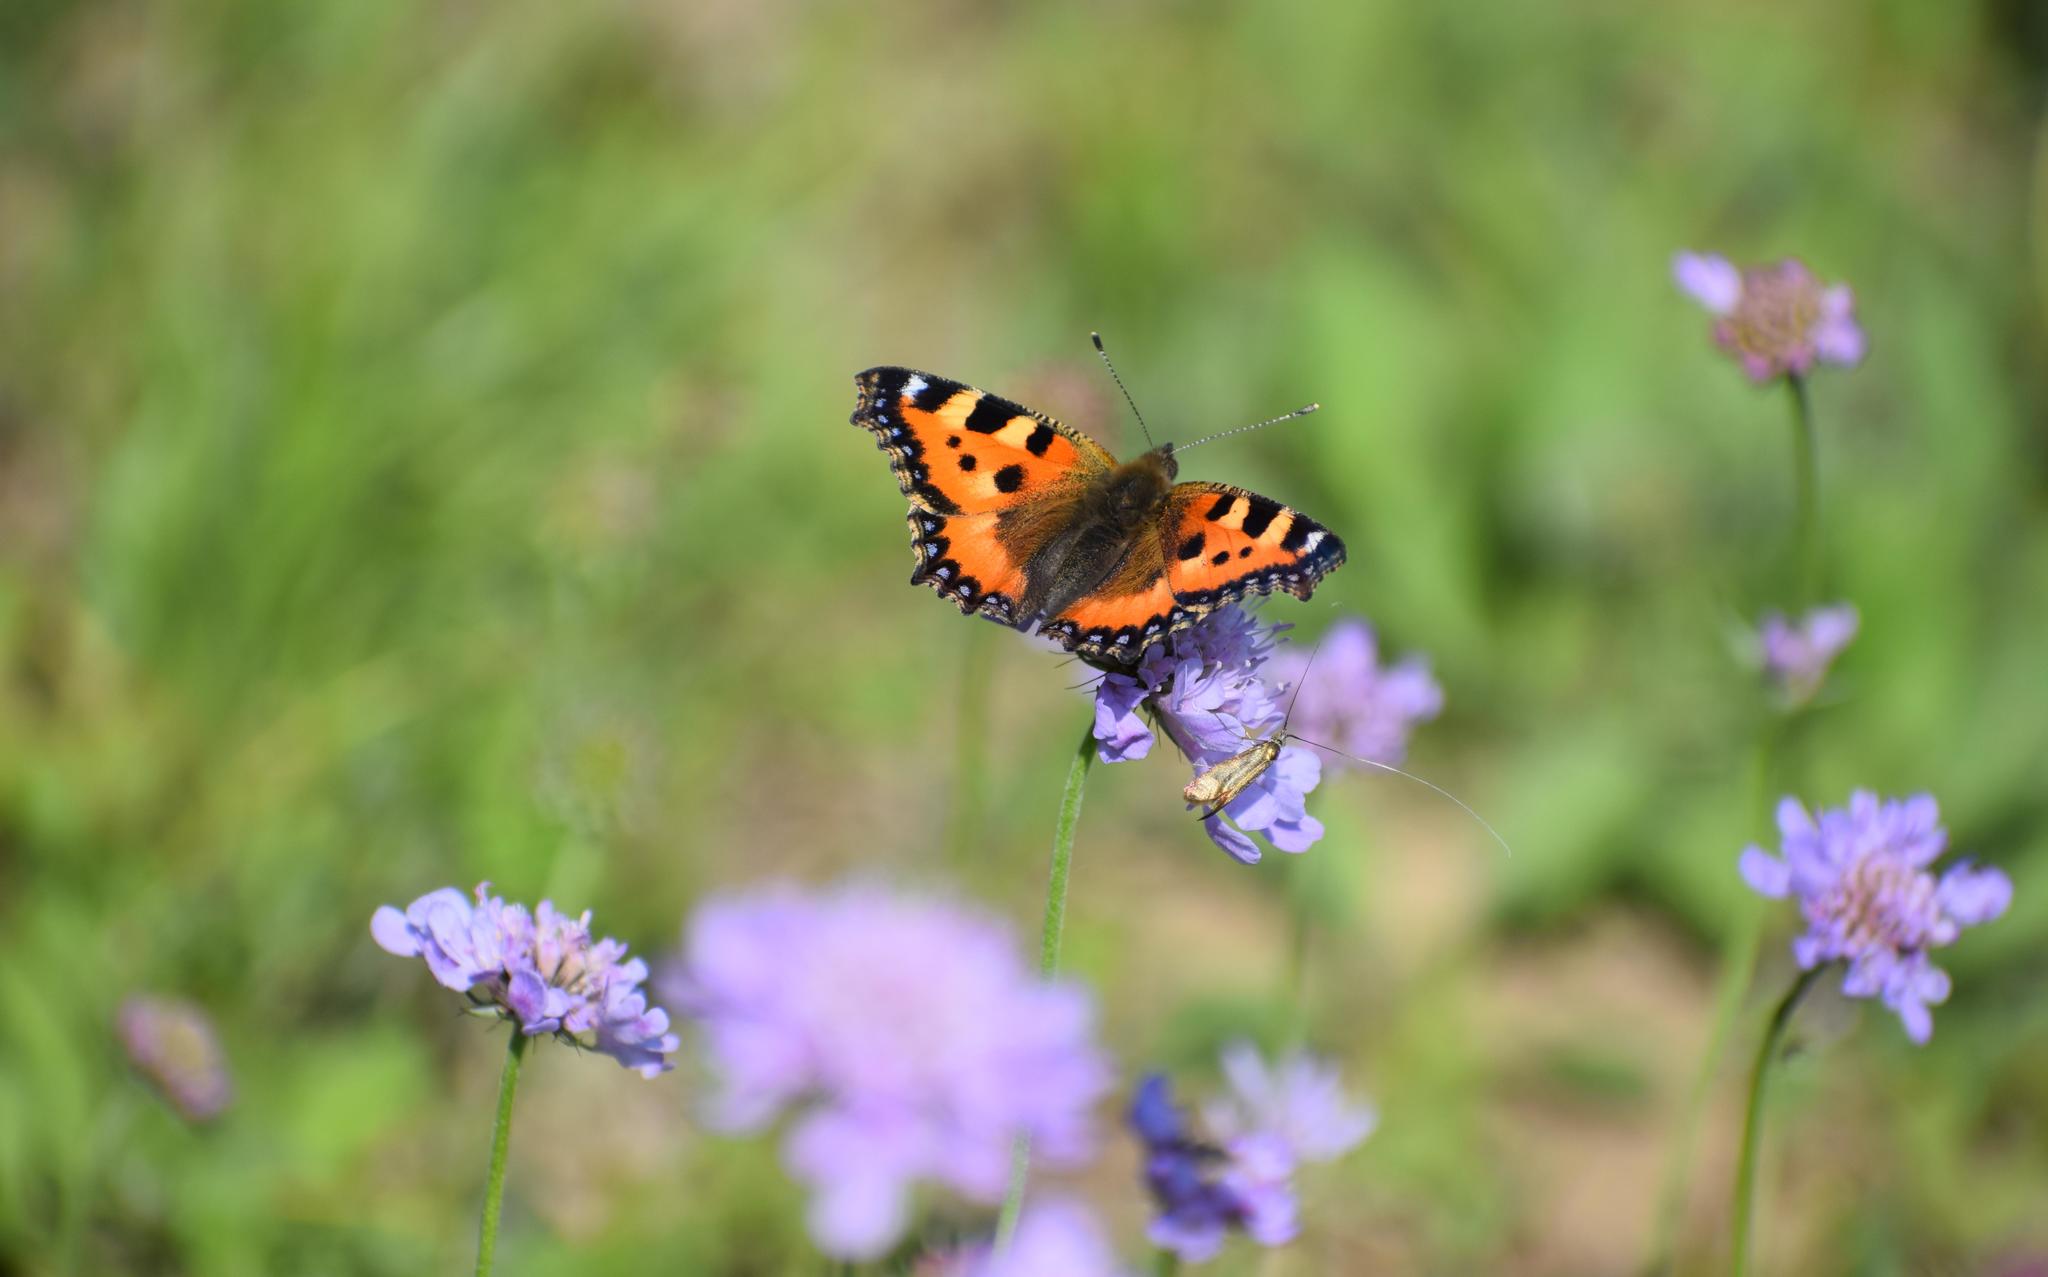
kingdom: Animalia
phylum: Arthropoda
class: Insecta
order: Lepidoptera
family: Nymphalidae
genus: Aglais
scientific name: Aglais urticae
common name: Small tortoiseshell
